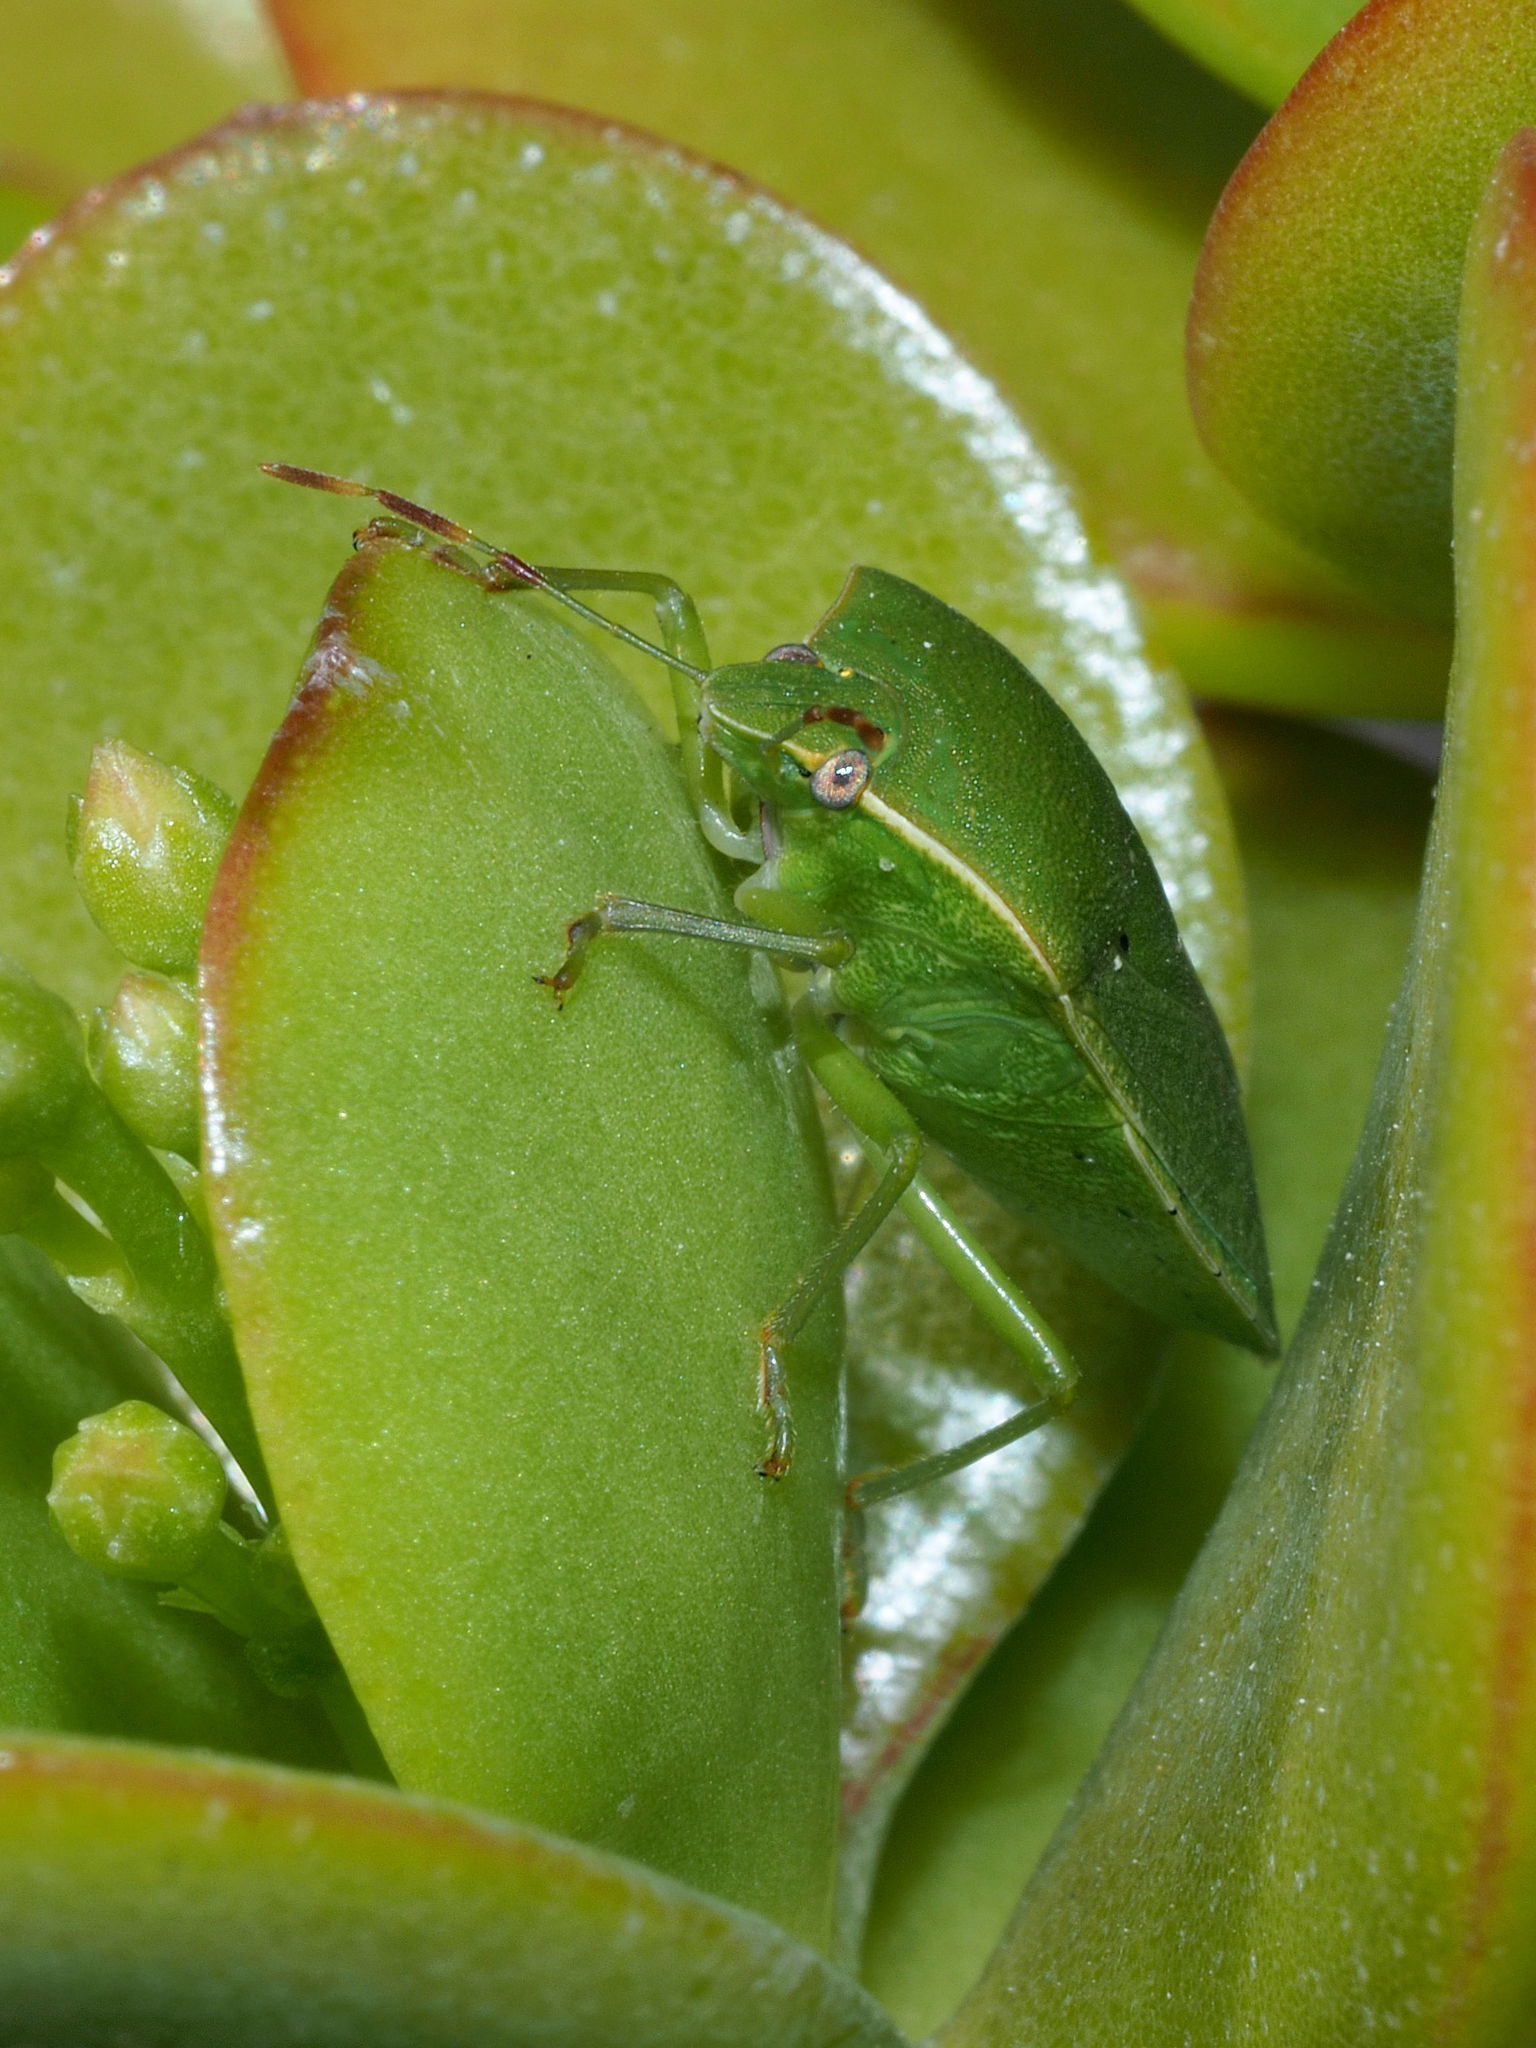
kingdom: Animalia
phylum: Arthropoda
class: Insecta
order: Hemiptera
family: Pentatomidae
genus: Nezara
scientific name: Nezara viridula
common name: Southern green stink bug
